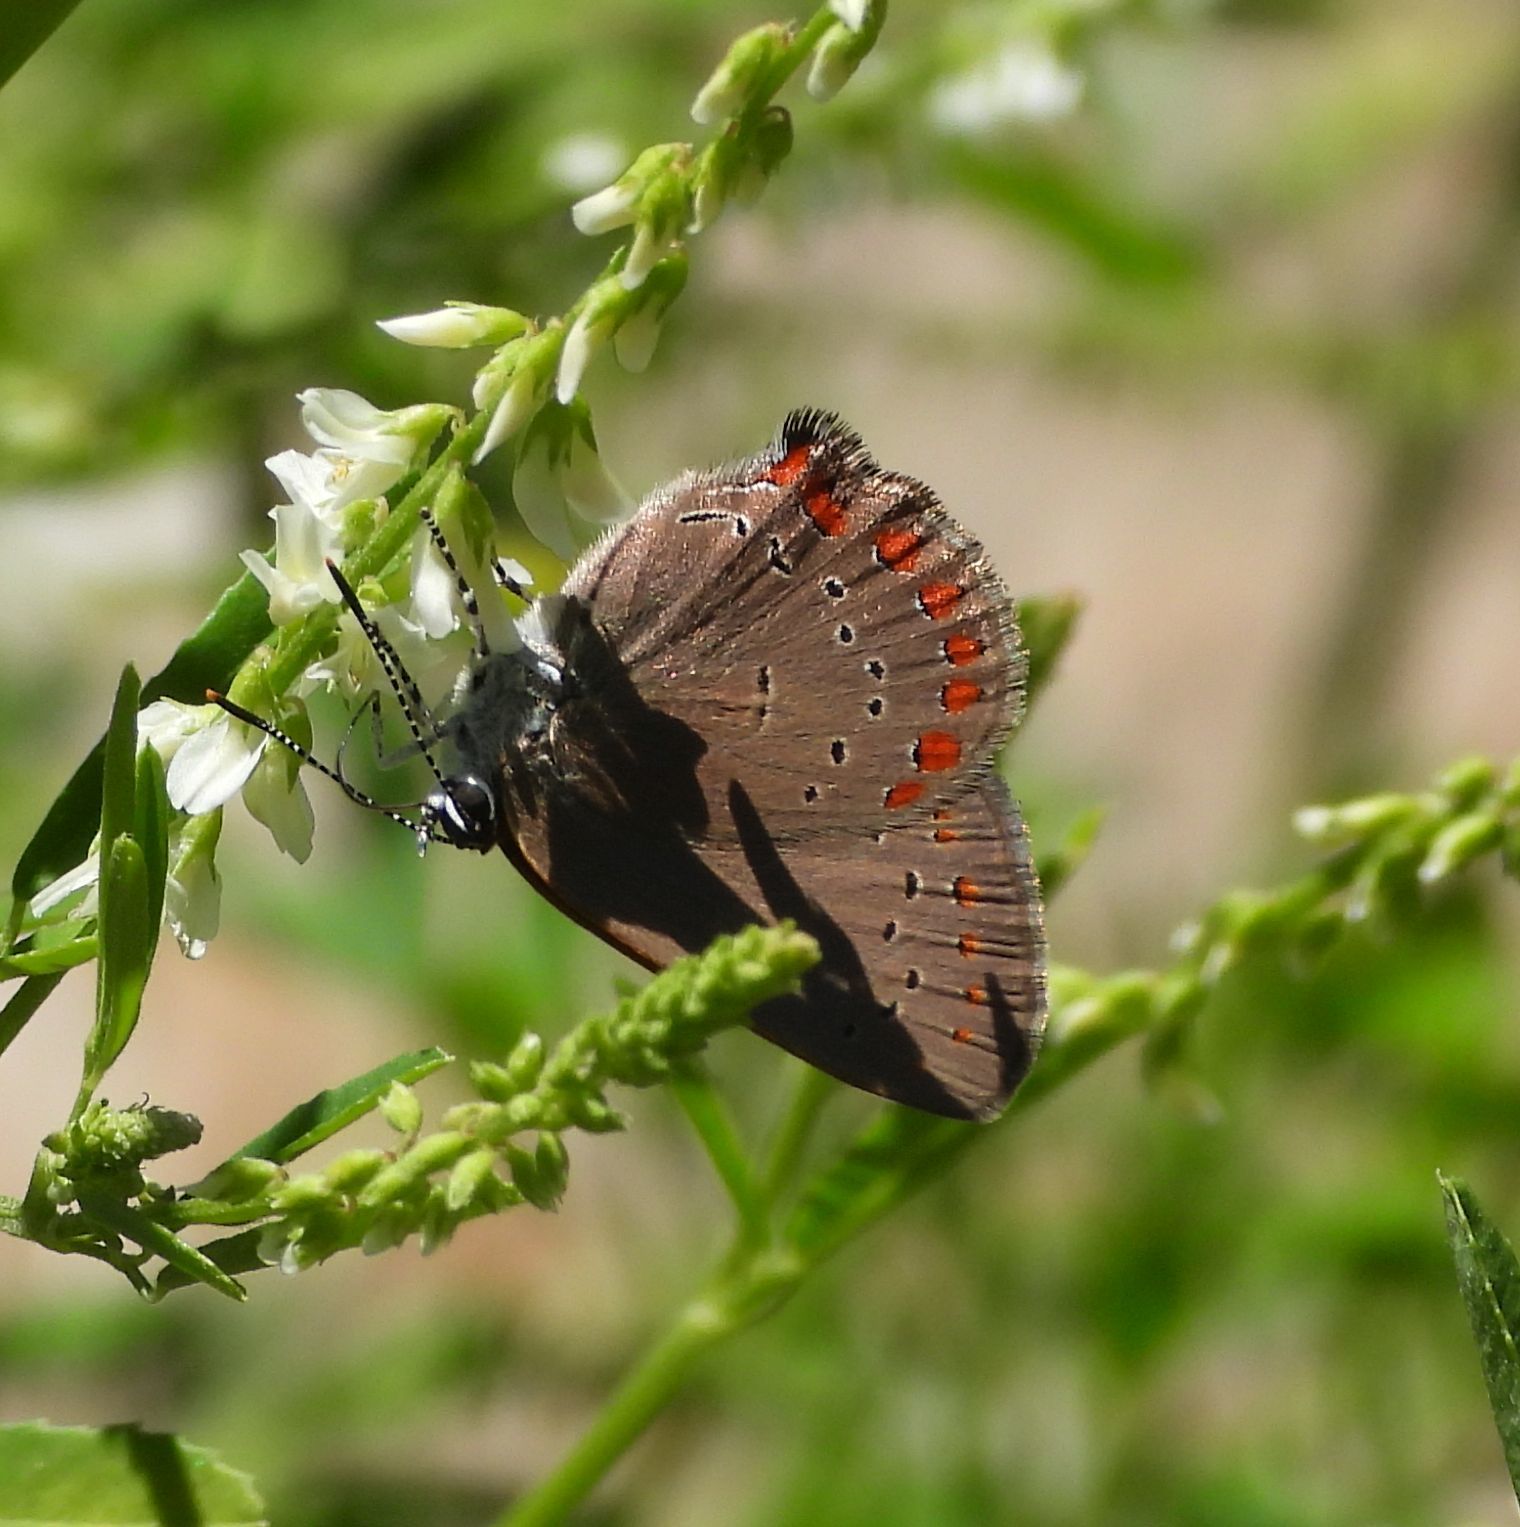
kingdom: Animalia
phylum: Arthropoda
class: Insecta
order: Lepidoptera
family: Lycaenidae
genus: Harkenclenus
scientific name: Harkenclenus titus
